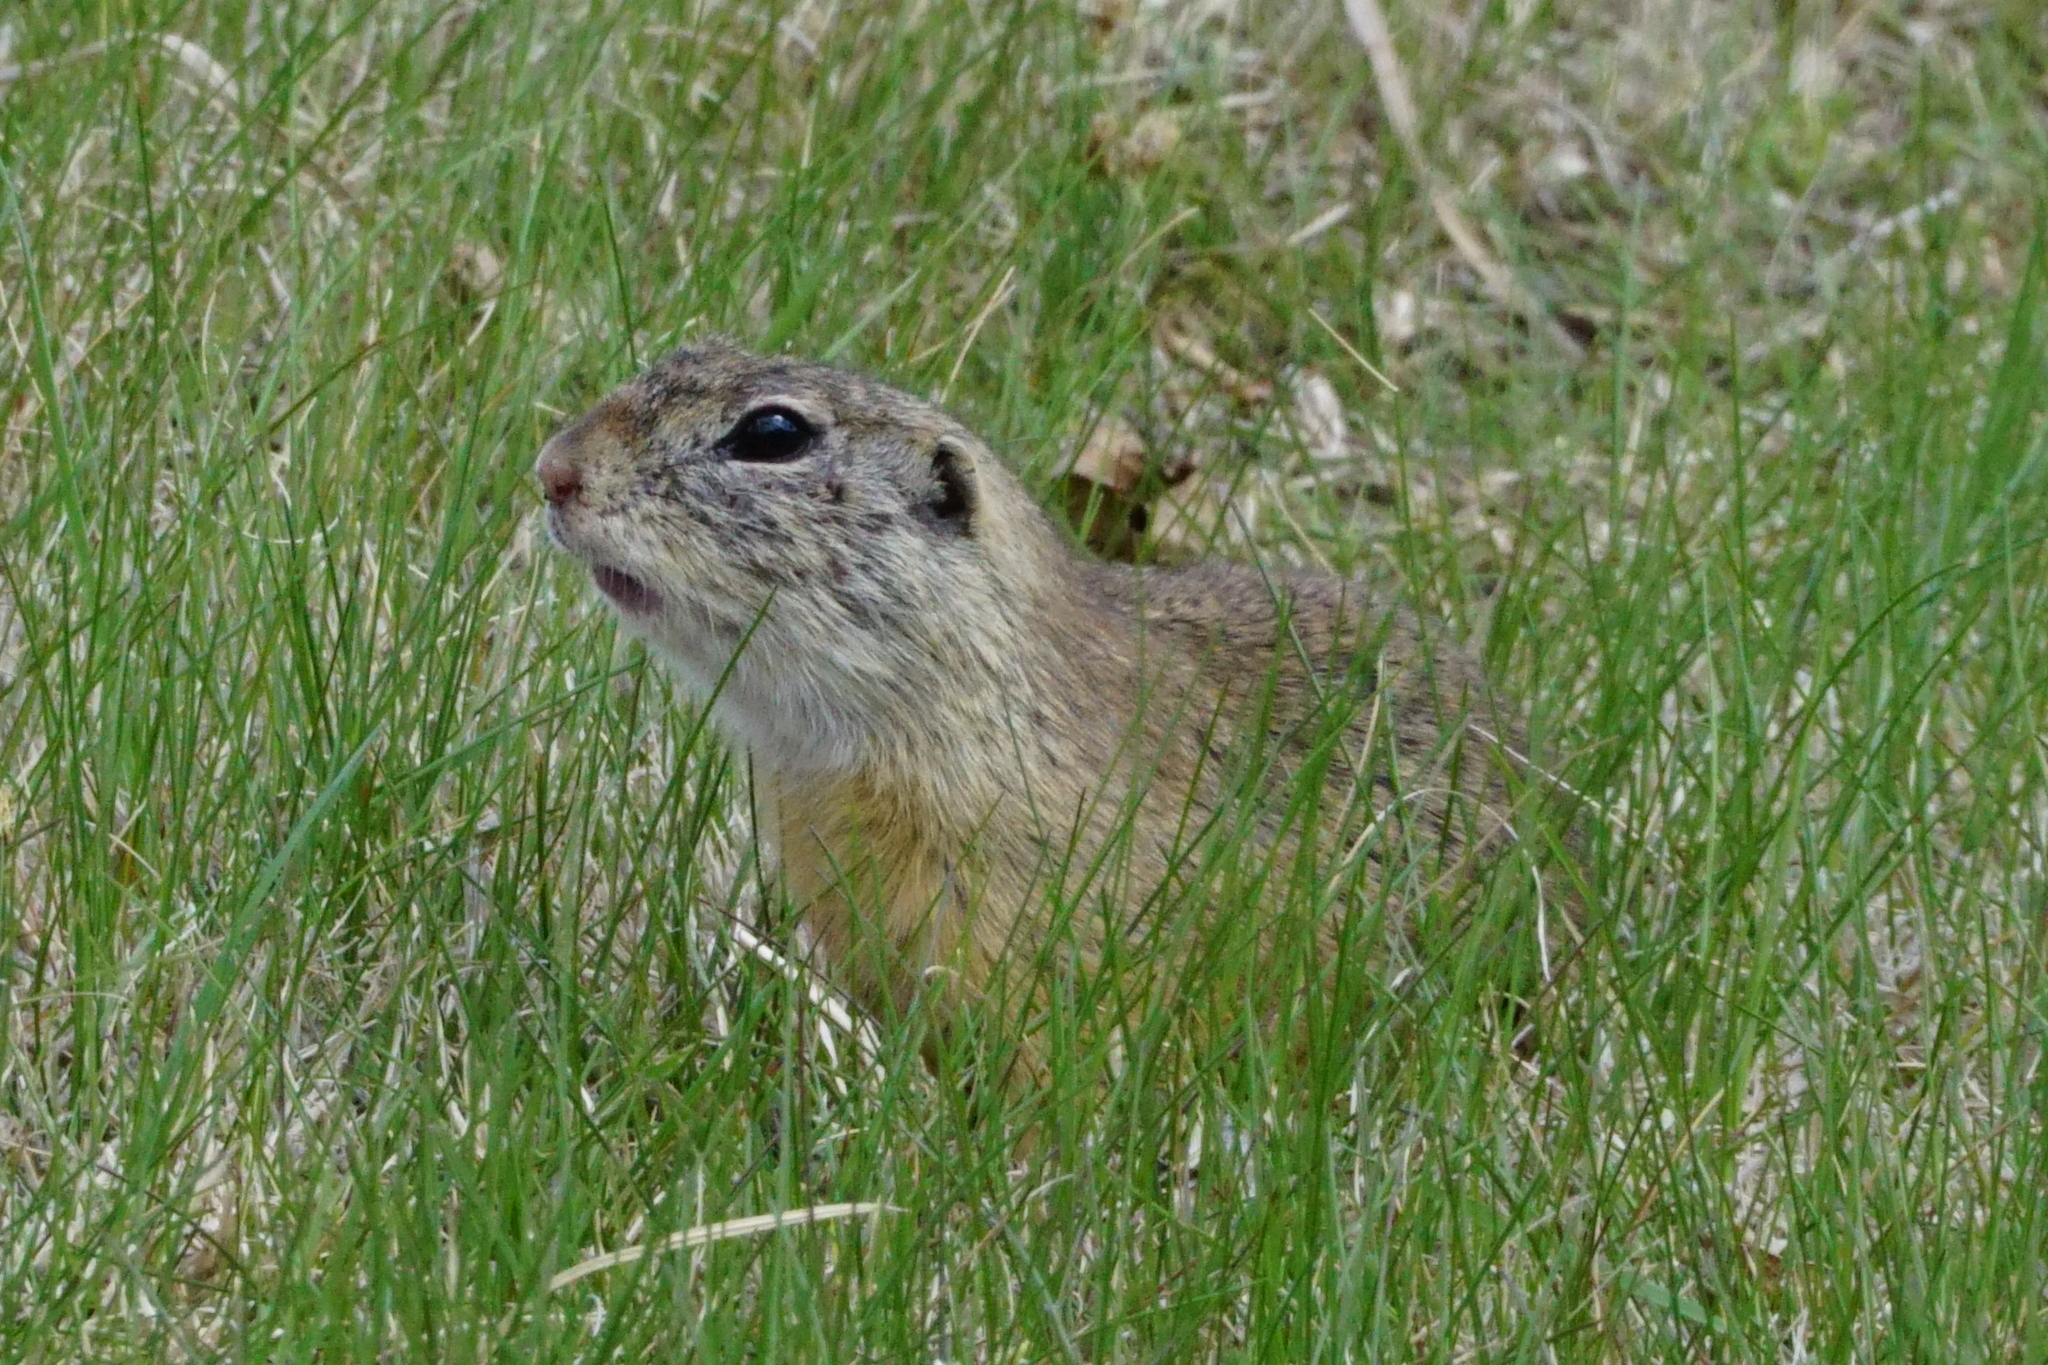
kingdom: Animalia
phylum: Chordata
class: Mammalia
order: Rodentia
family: Sciuridae
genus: Spermophilus
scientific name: Spermophilus citellus
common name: European ground squirrel
